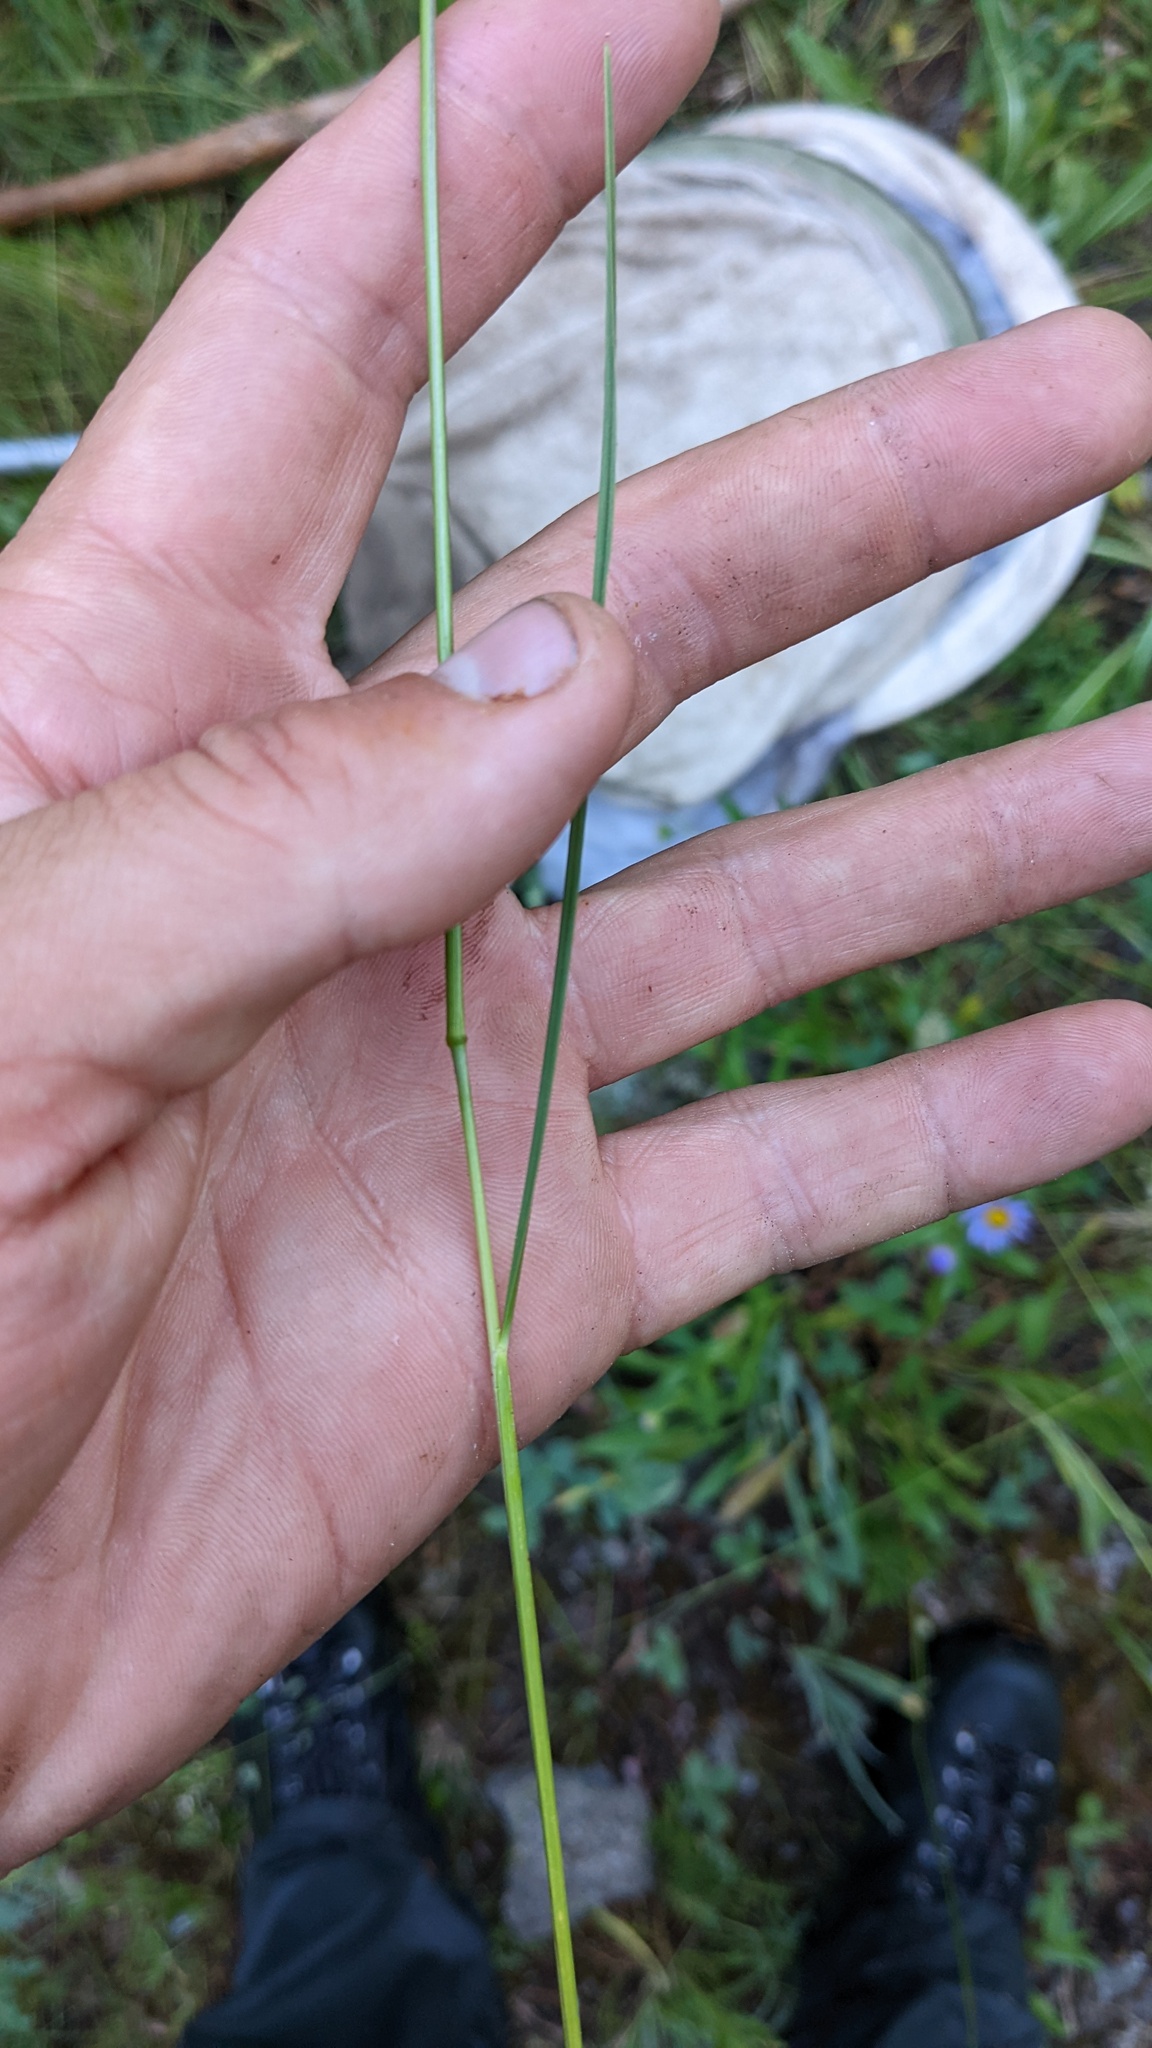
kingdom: Plantae
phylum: Tracheophyta
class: Liliopsida
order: Poales
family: Poaceae
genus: Eriocoma
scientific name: Eriocoma richardsonii
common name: Richardson's needlegrass
